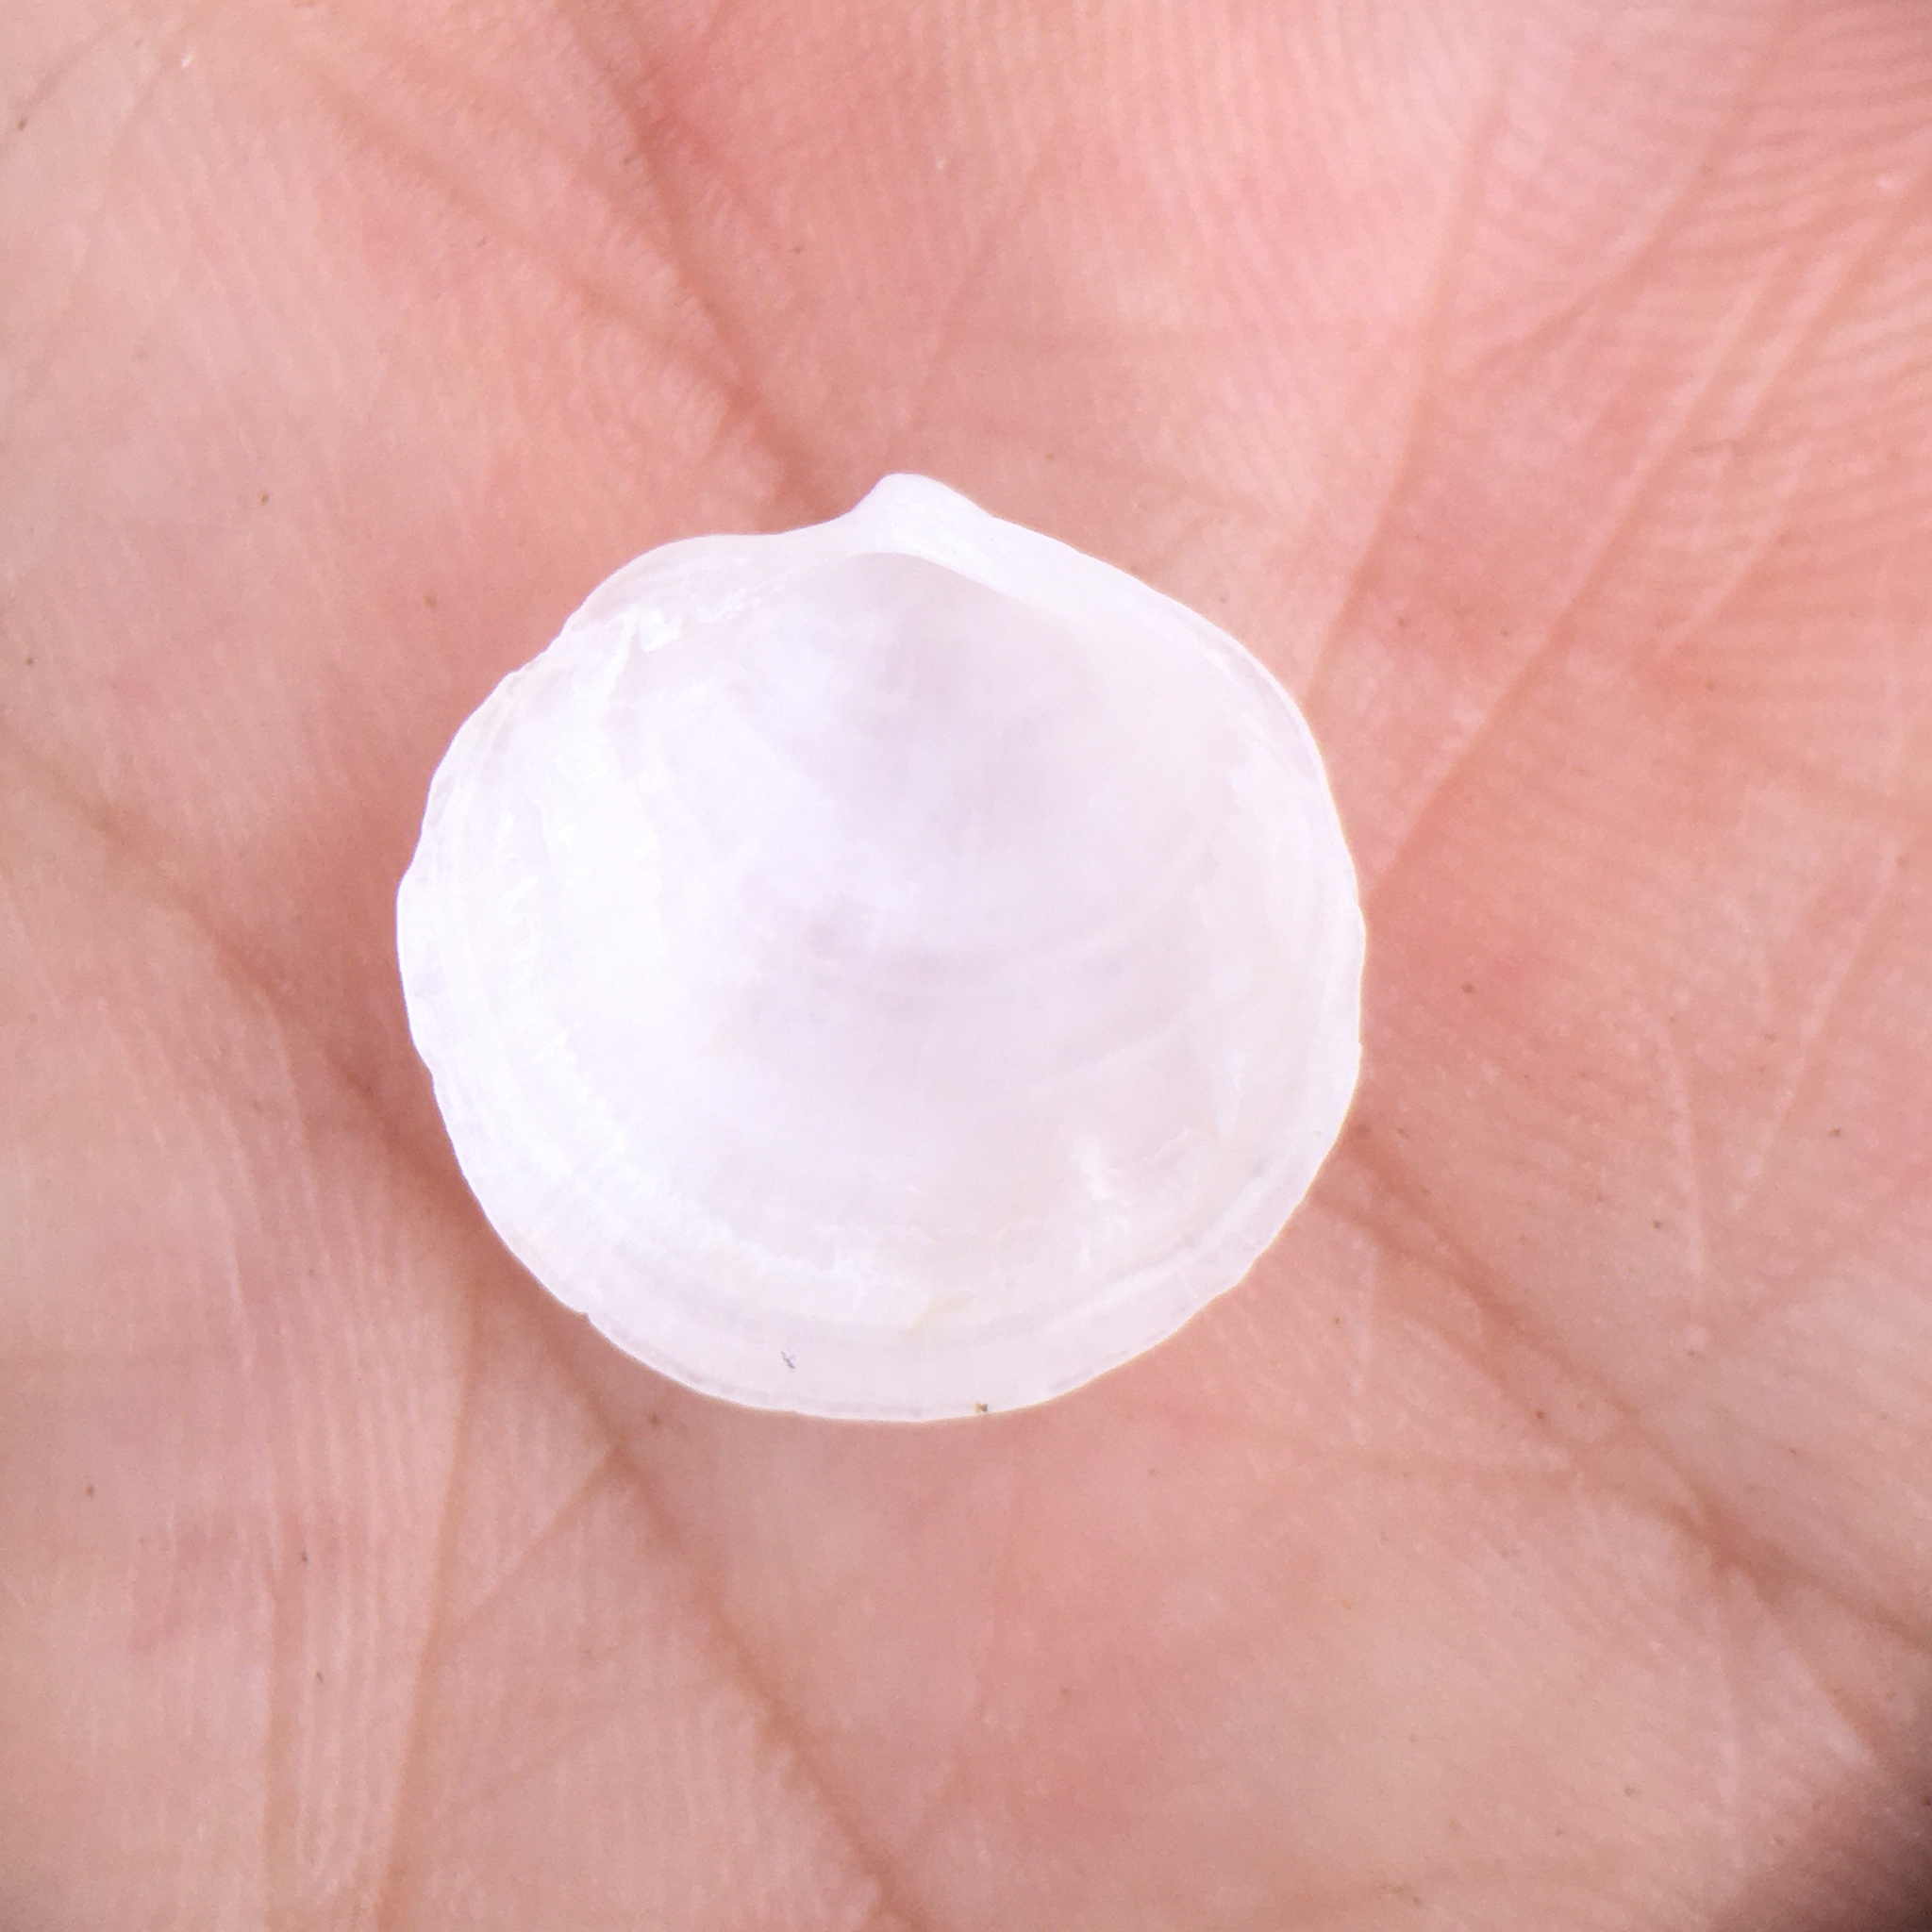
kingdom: Animalia
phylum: Mollusca
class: Bivalvia
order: Lucinida
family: Lucinidae
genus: Loripes
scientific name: Loripes orbiculatus
